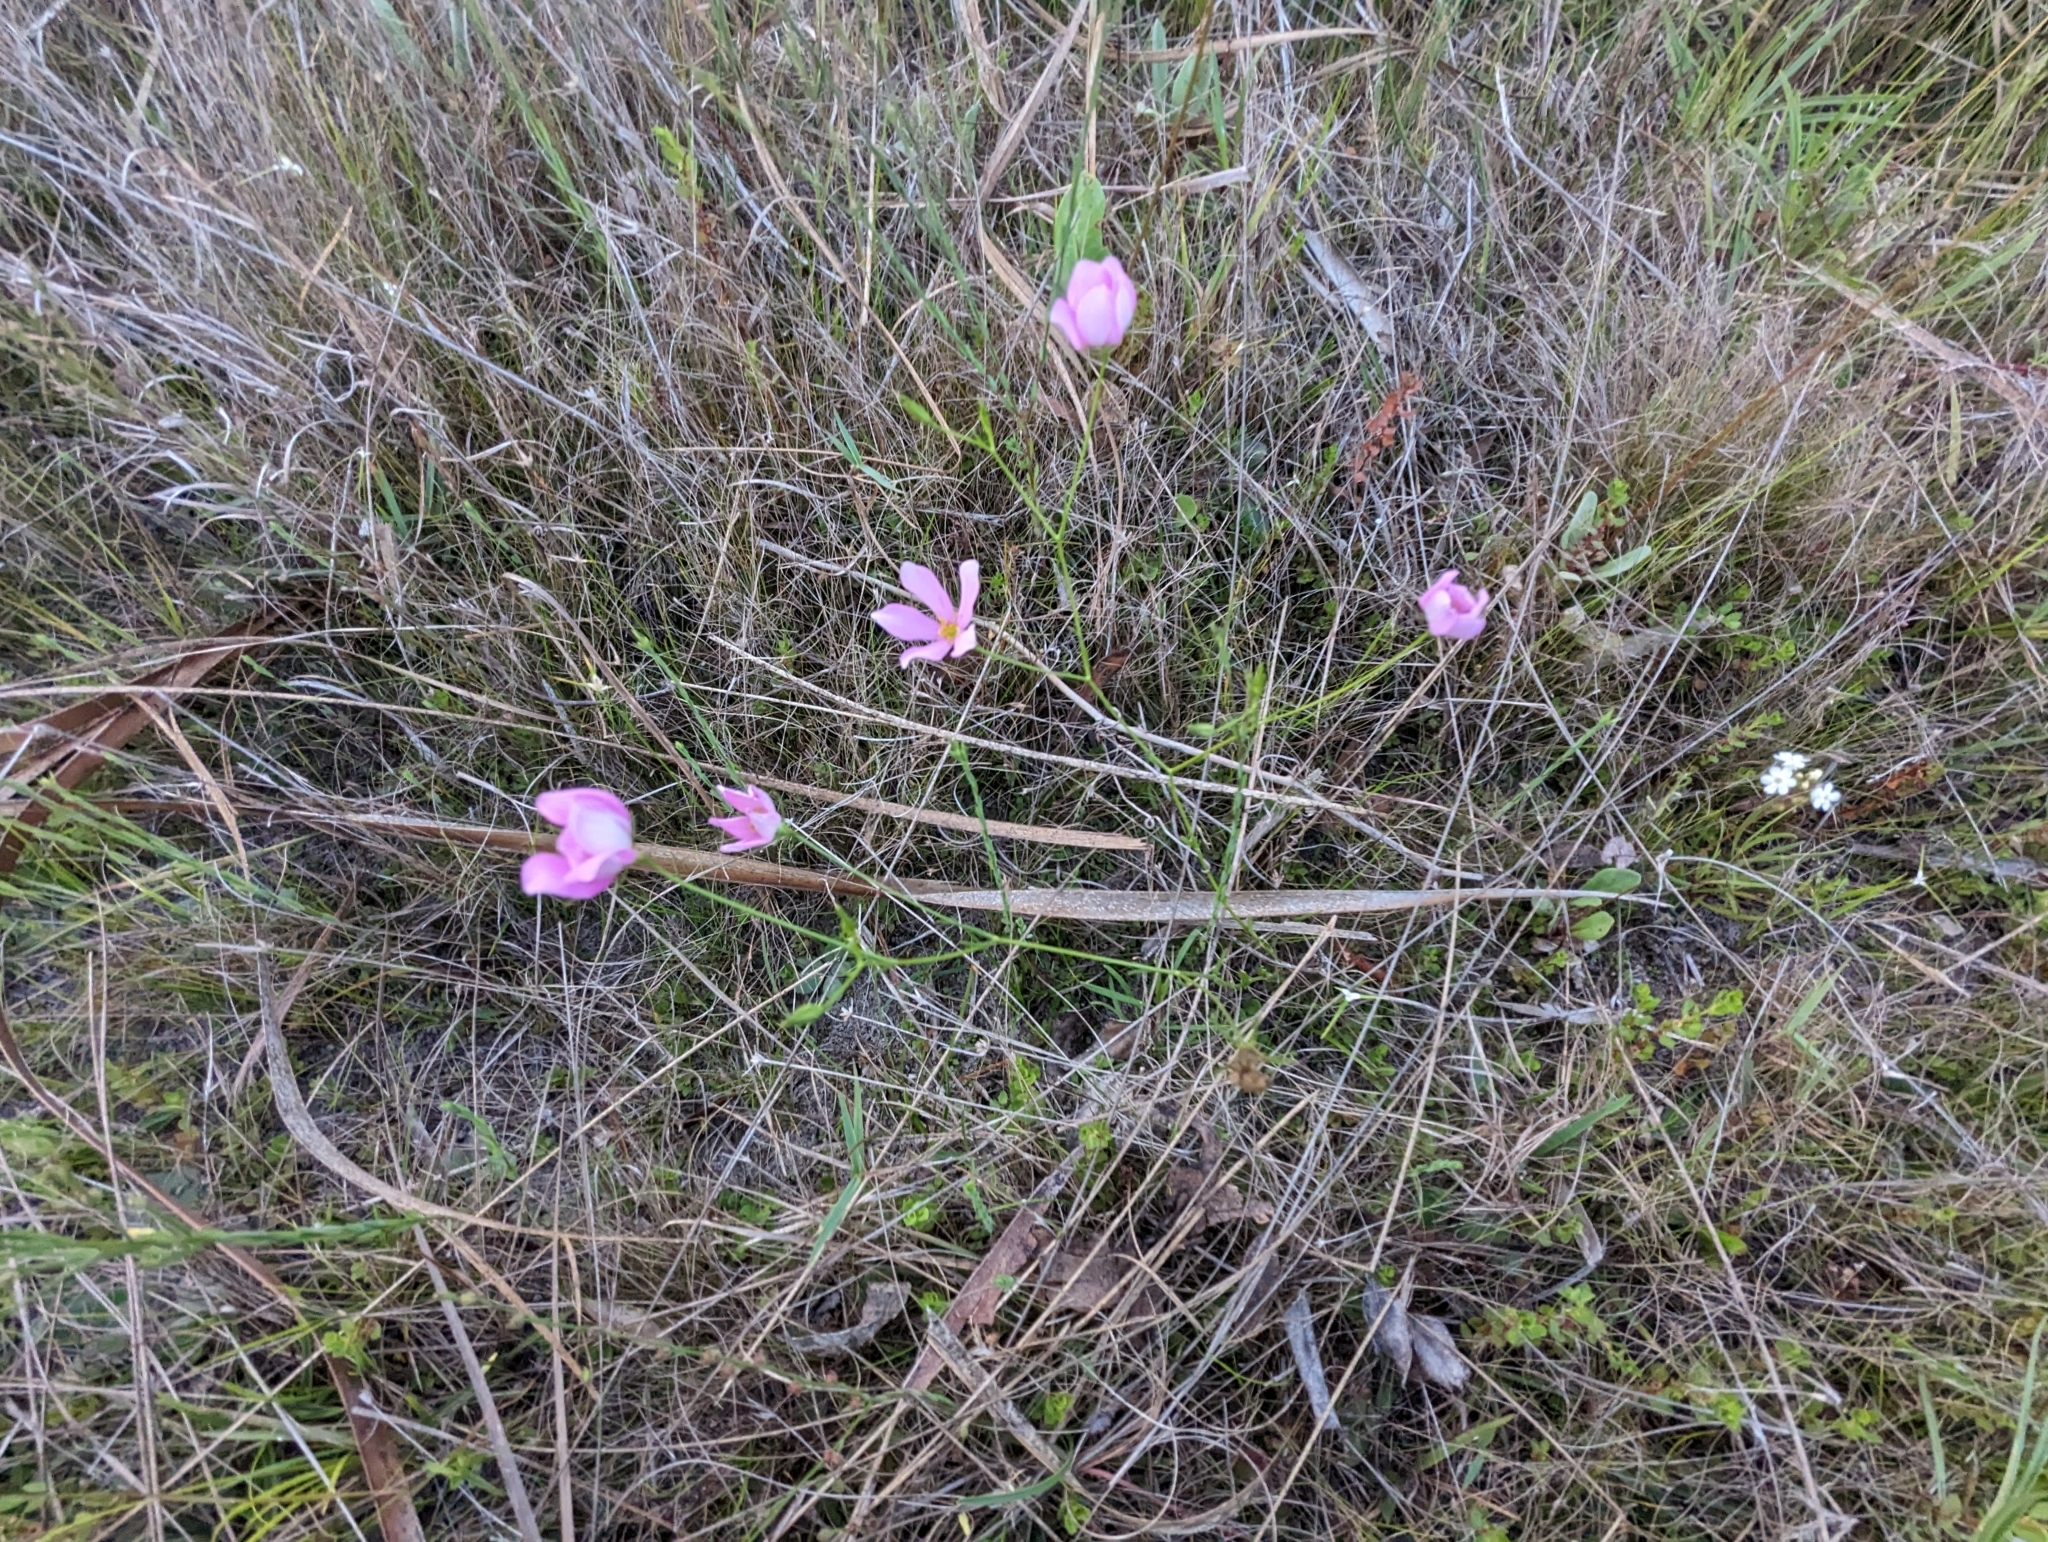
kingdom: Plantae
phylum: Tracheophyta
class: Magnoliopsida
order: Gentianales
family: Gentianaceae
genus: Sabatia
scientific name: Sabatia stellaris
